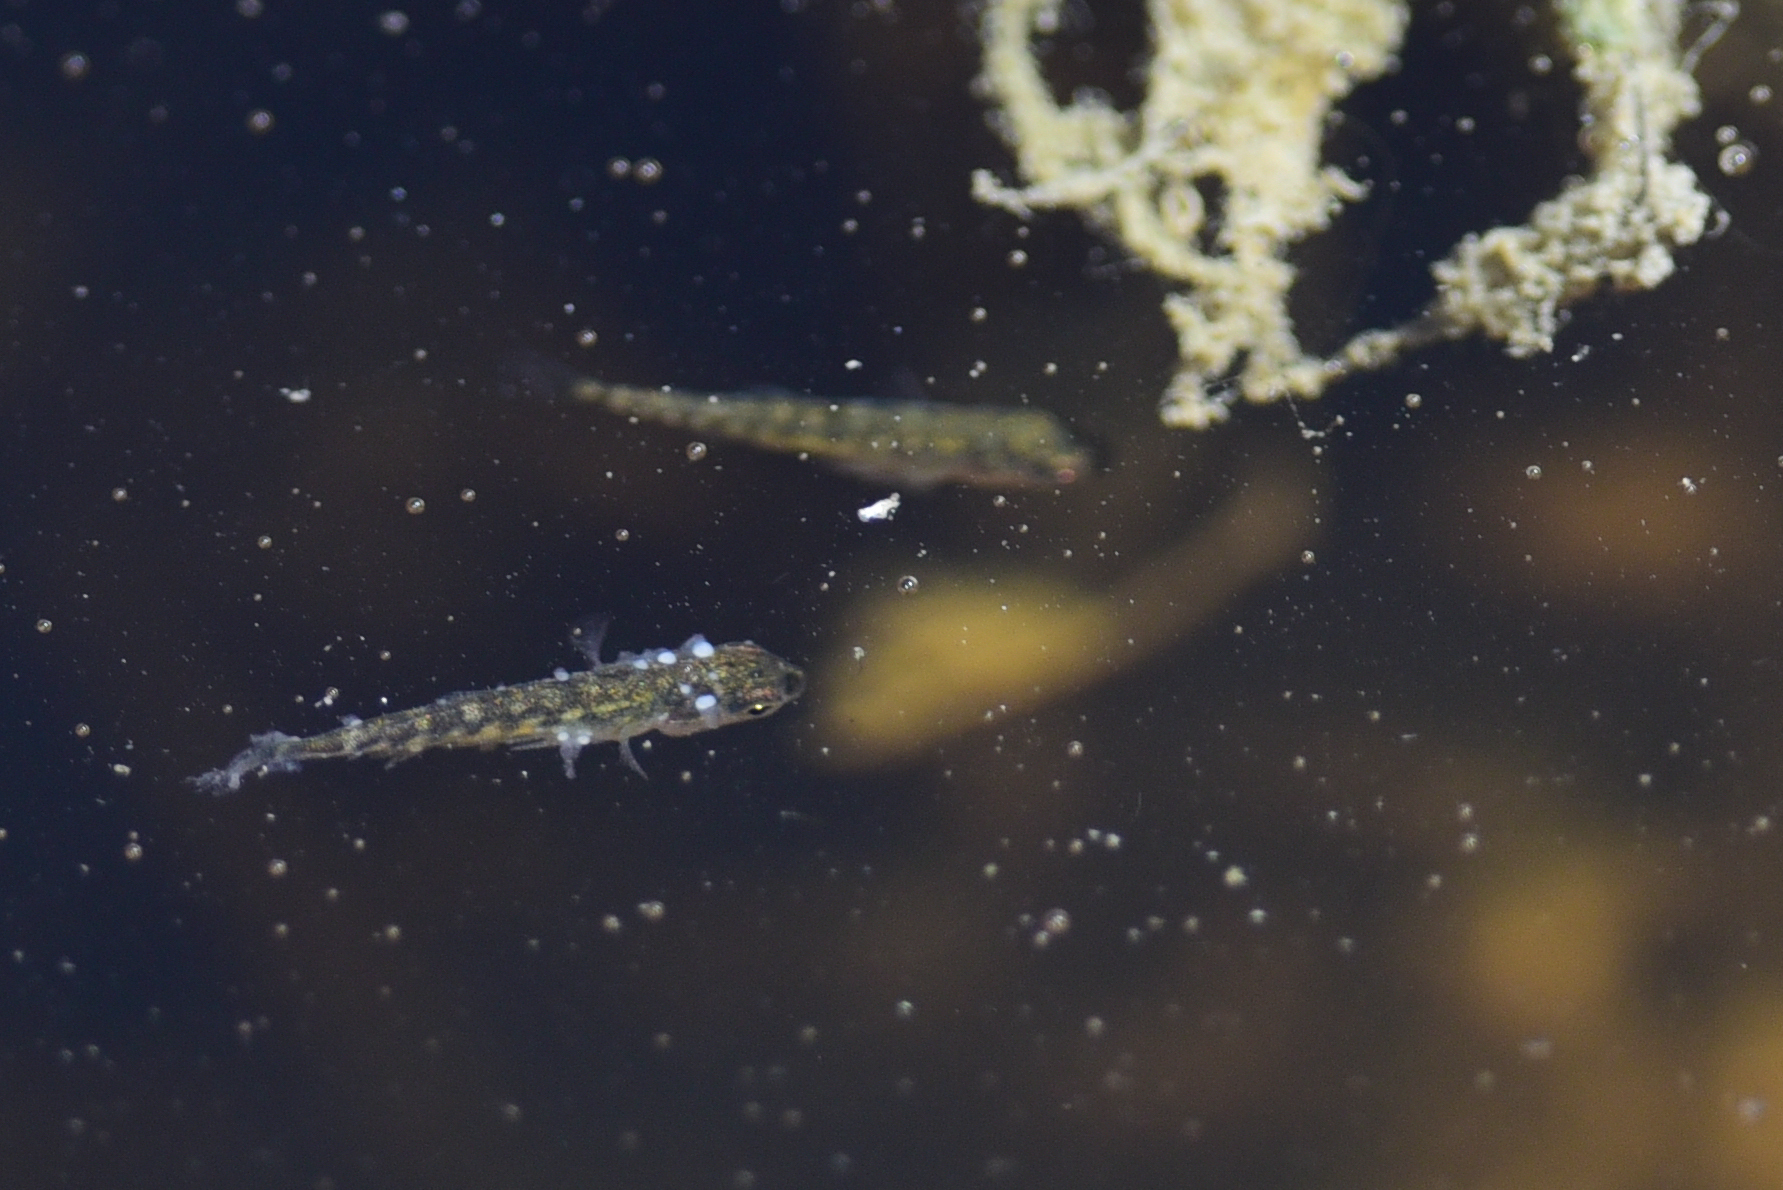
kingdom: Animalia
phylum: Chordata
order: Gasterosteiformes
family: Gasterosteidae
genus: Gasterosteus
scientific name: Gasterosteus aculeatus
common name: Three-spined stickleback
